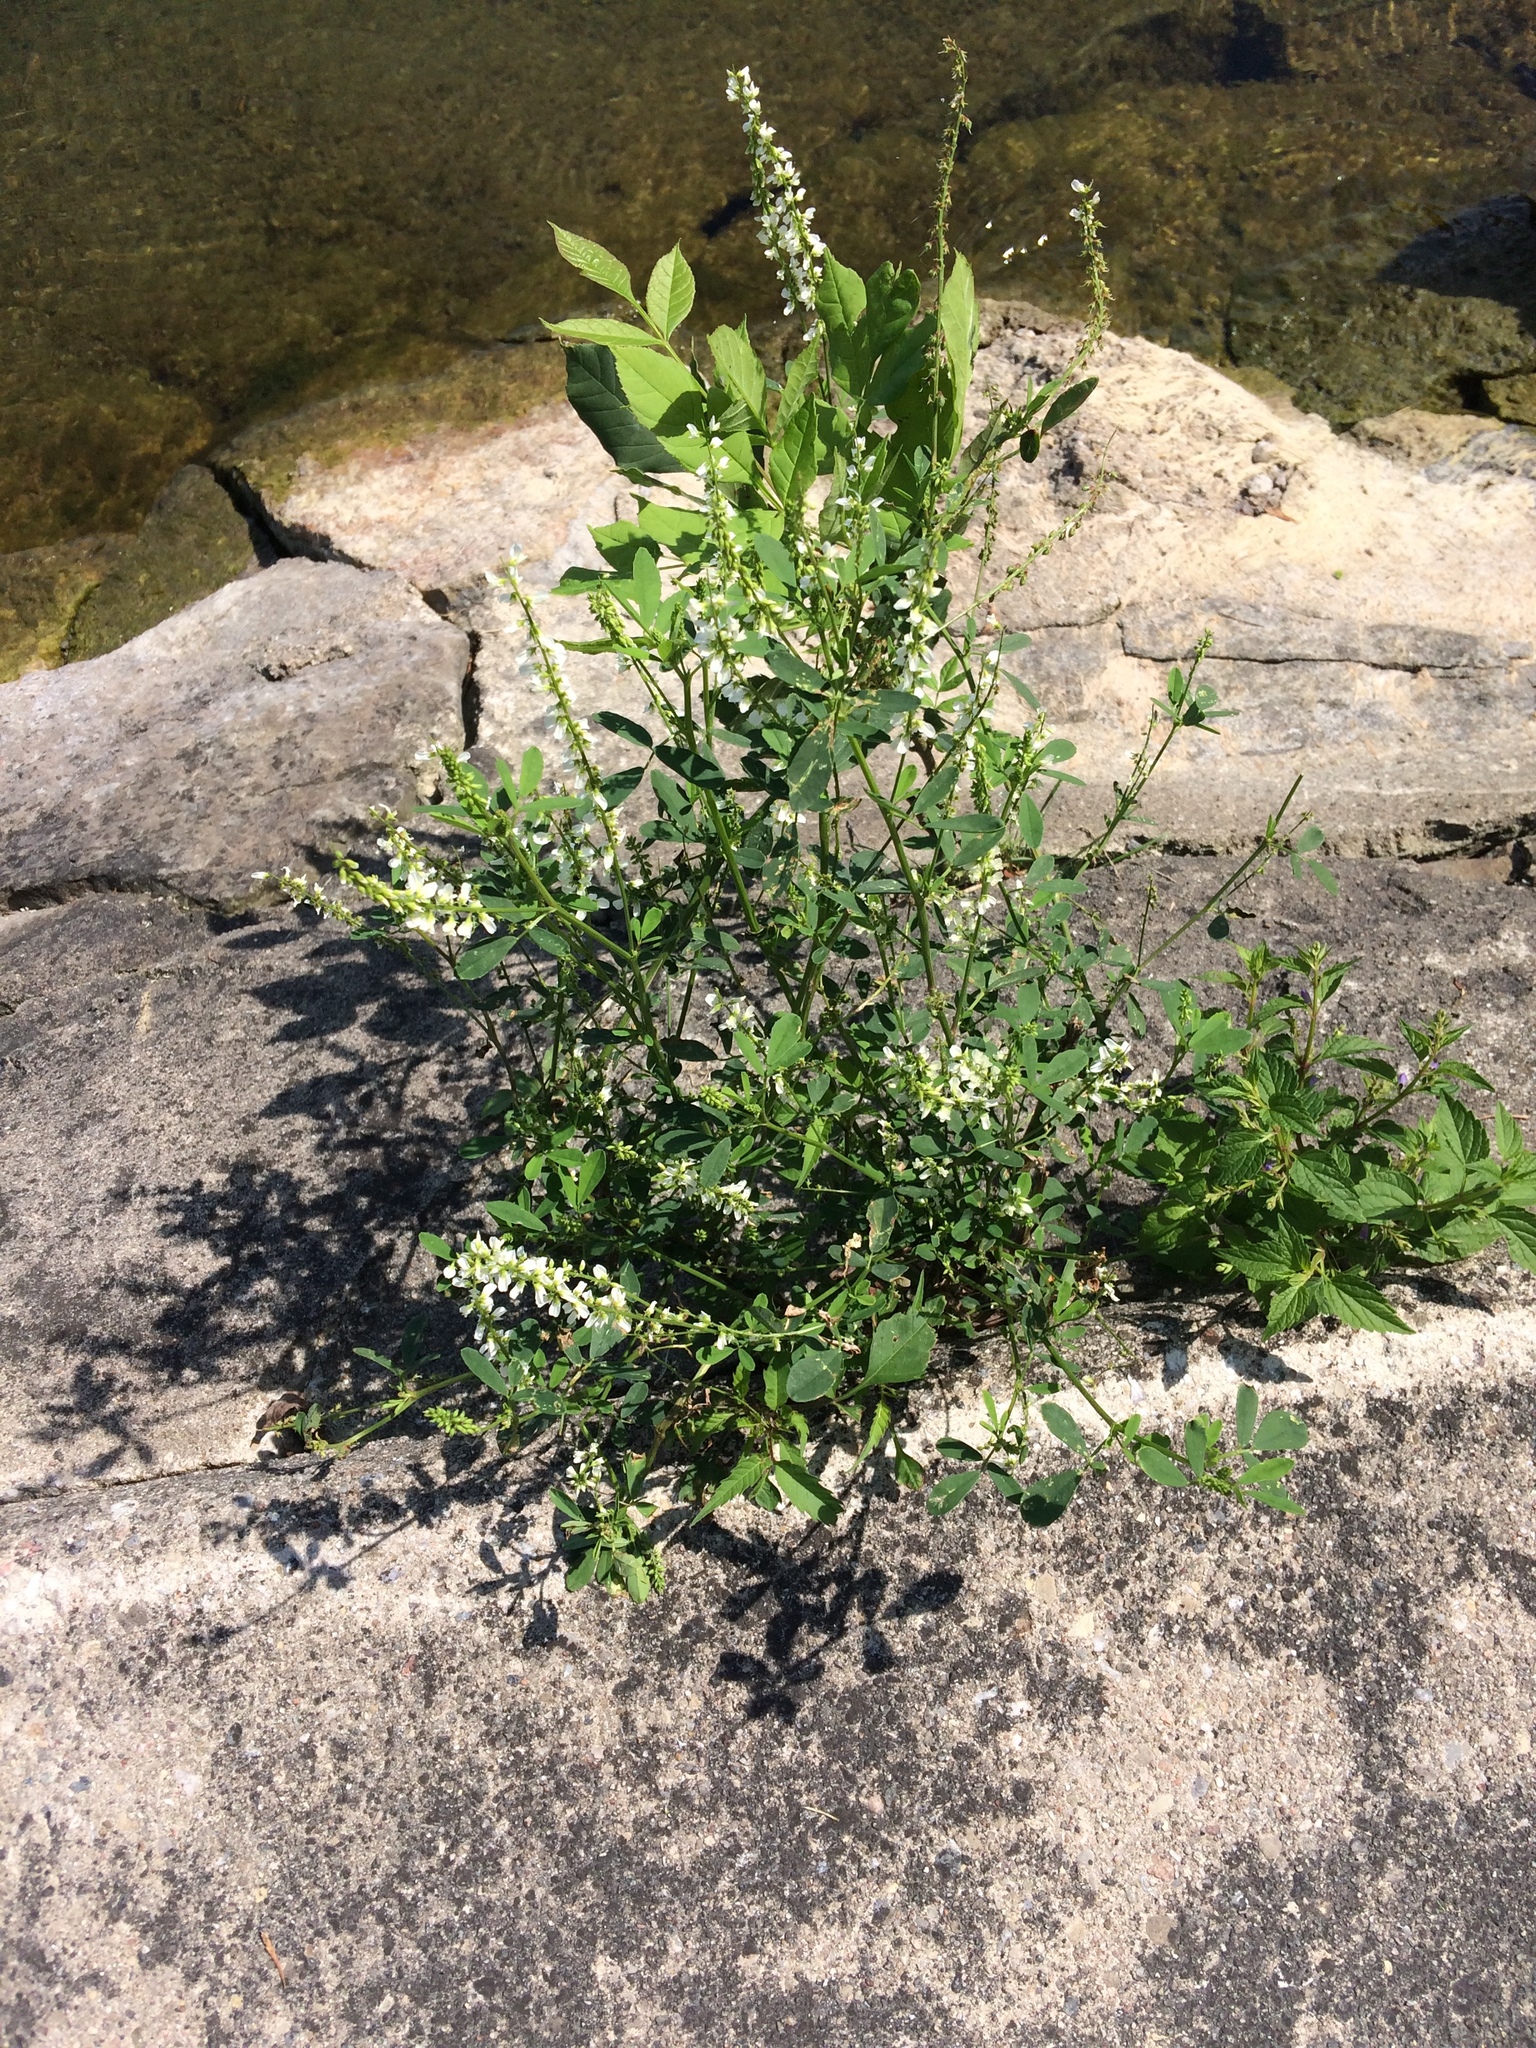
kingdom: Plantae
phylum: Tracheophyta
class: Magnoliopsida
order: Fabales
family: Fabaceae
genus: Melilotus
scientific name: Melilotus albus
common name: White melilot
